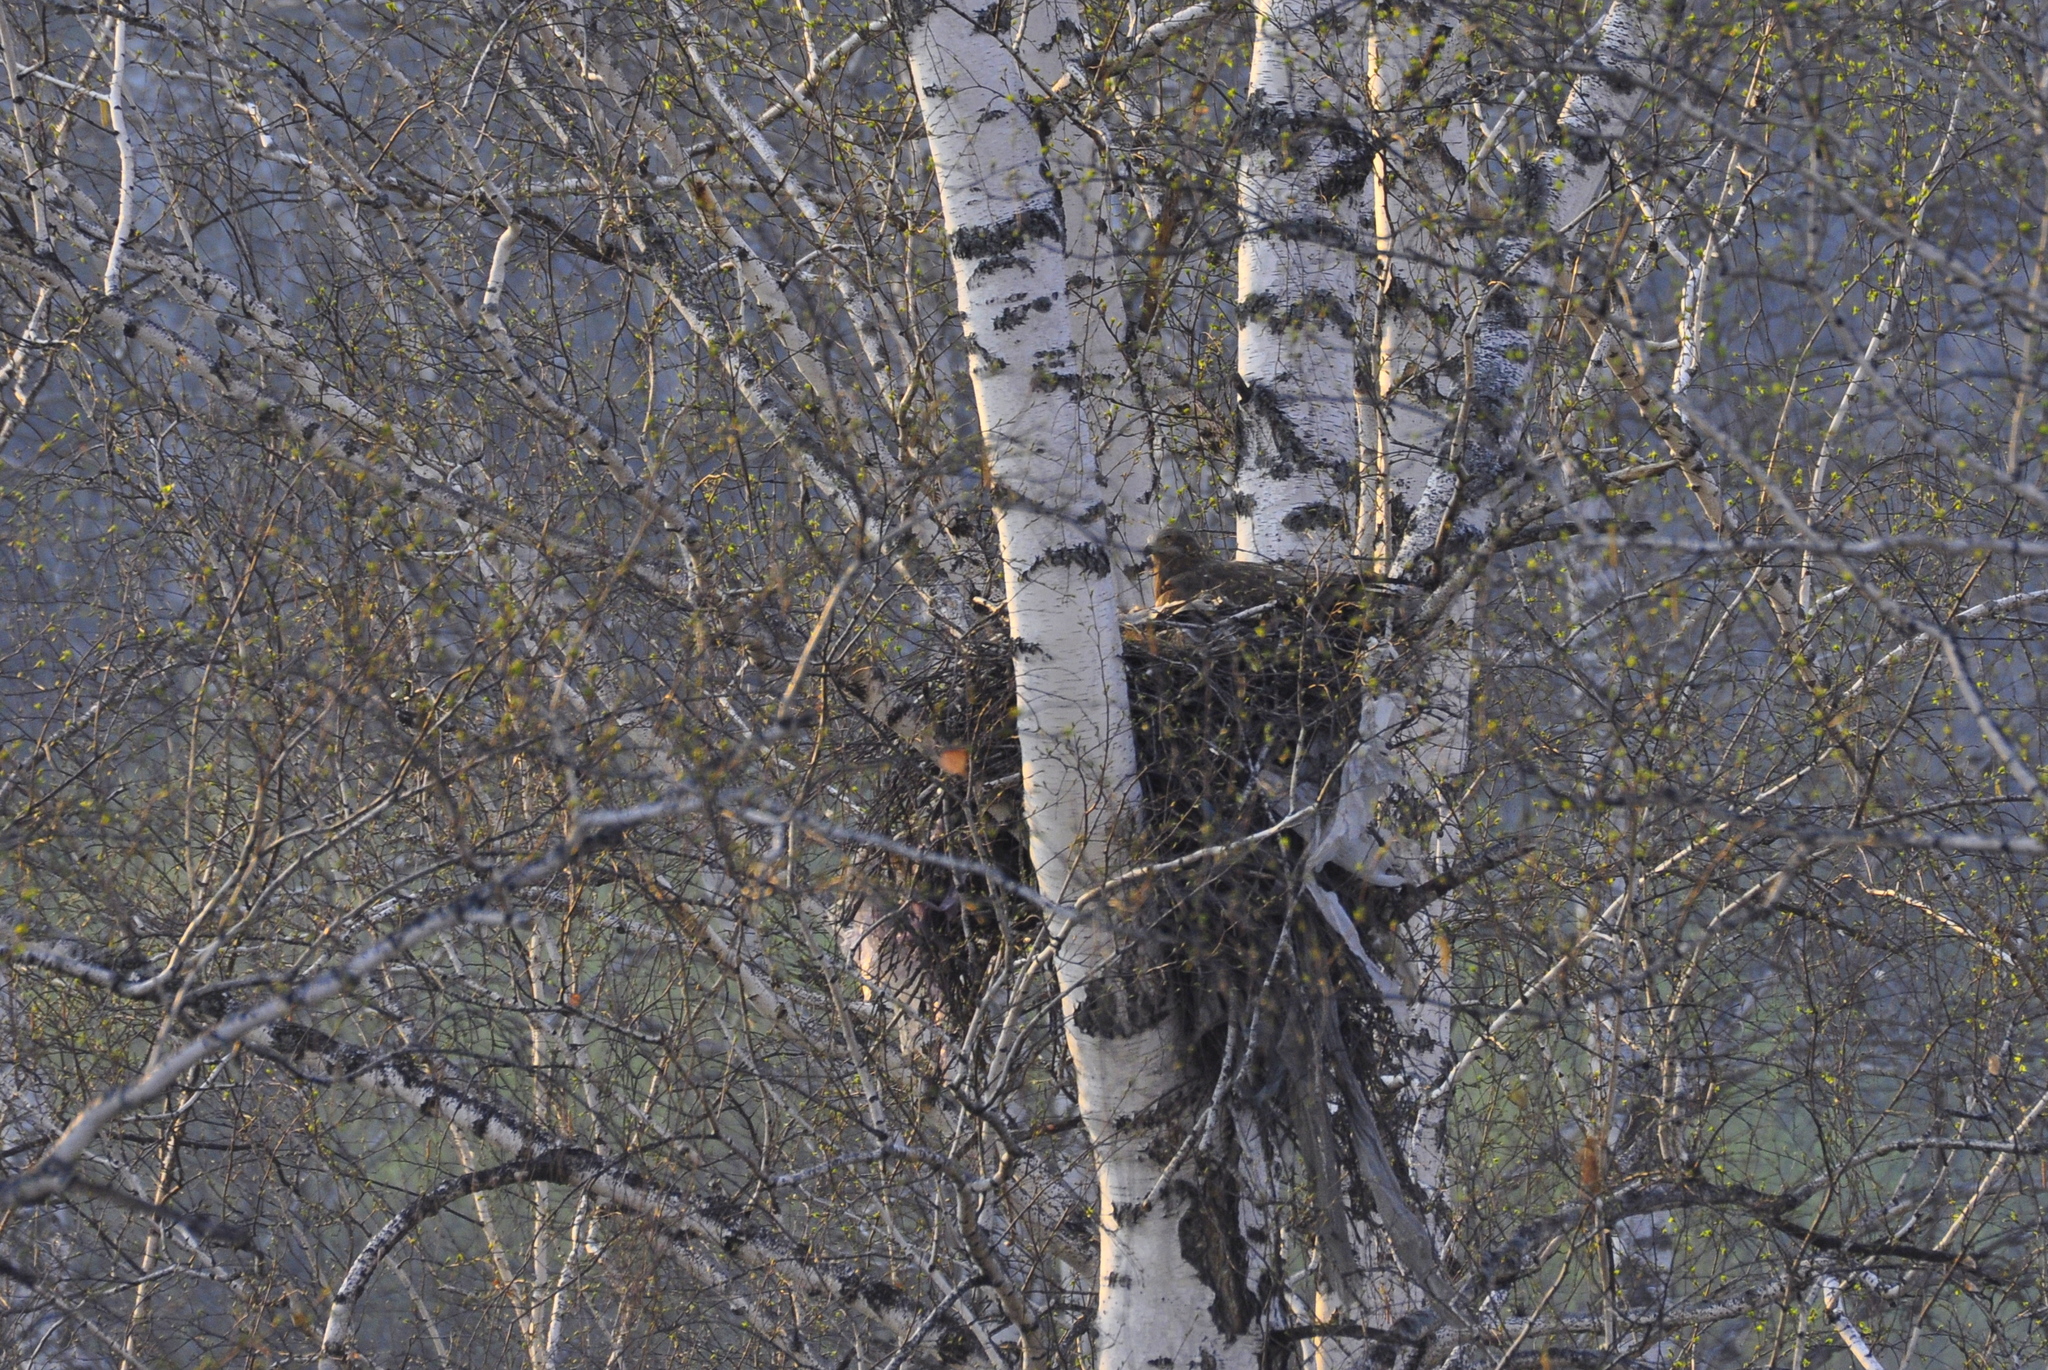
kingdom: Animalia
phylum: Chordata
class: Aves
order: Accipitriformes
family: Accipitridae
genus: Milvus
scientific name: Milvus migrans
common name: Black kite
